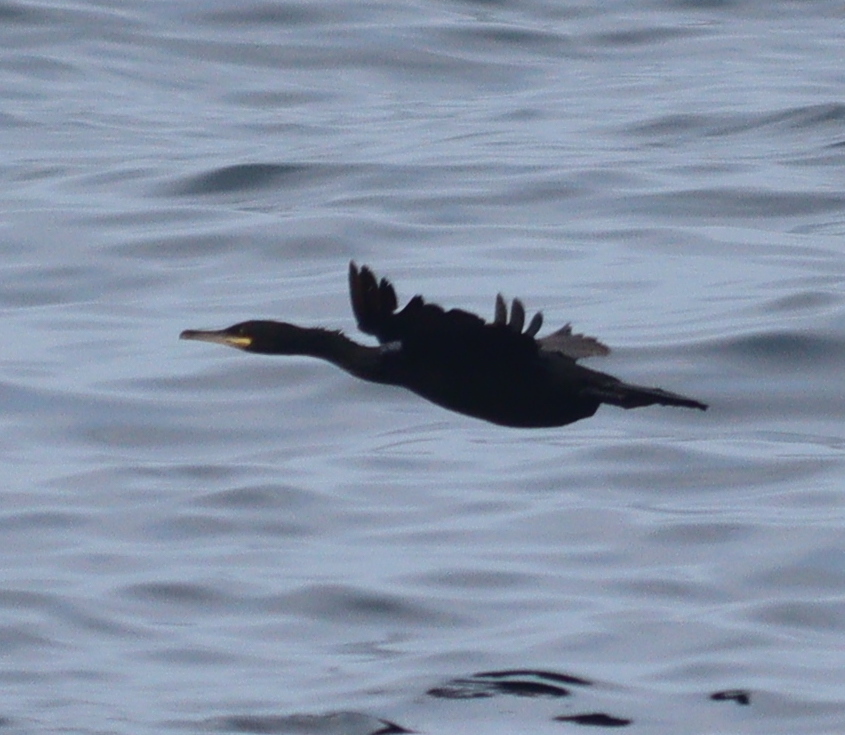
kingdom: Animalia
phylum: Chordata
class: Aves
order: Suliformes
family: Phalacrocoracidae
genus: Phalacrocorax
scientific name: Phalacrocorax aristotelis
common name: European shag
